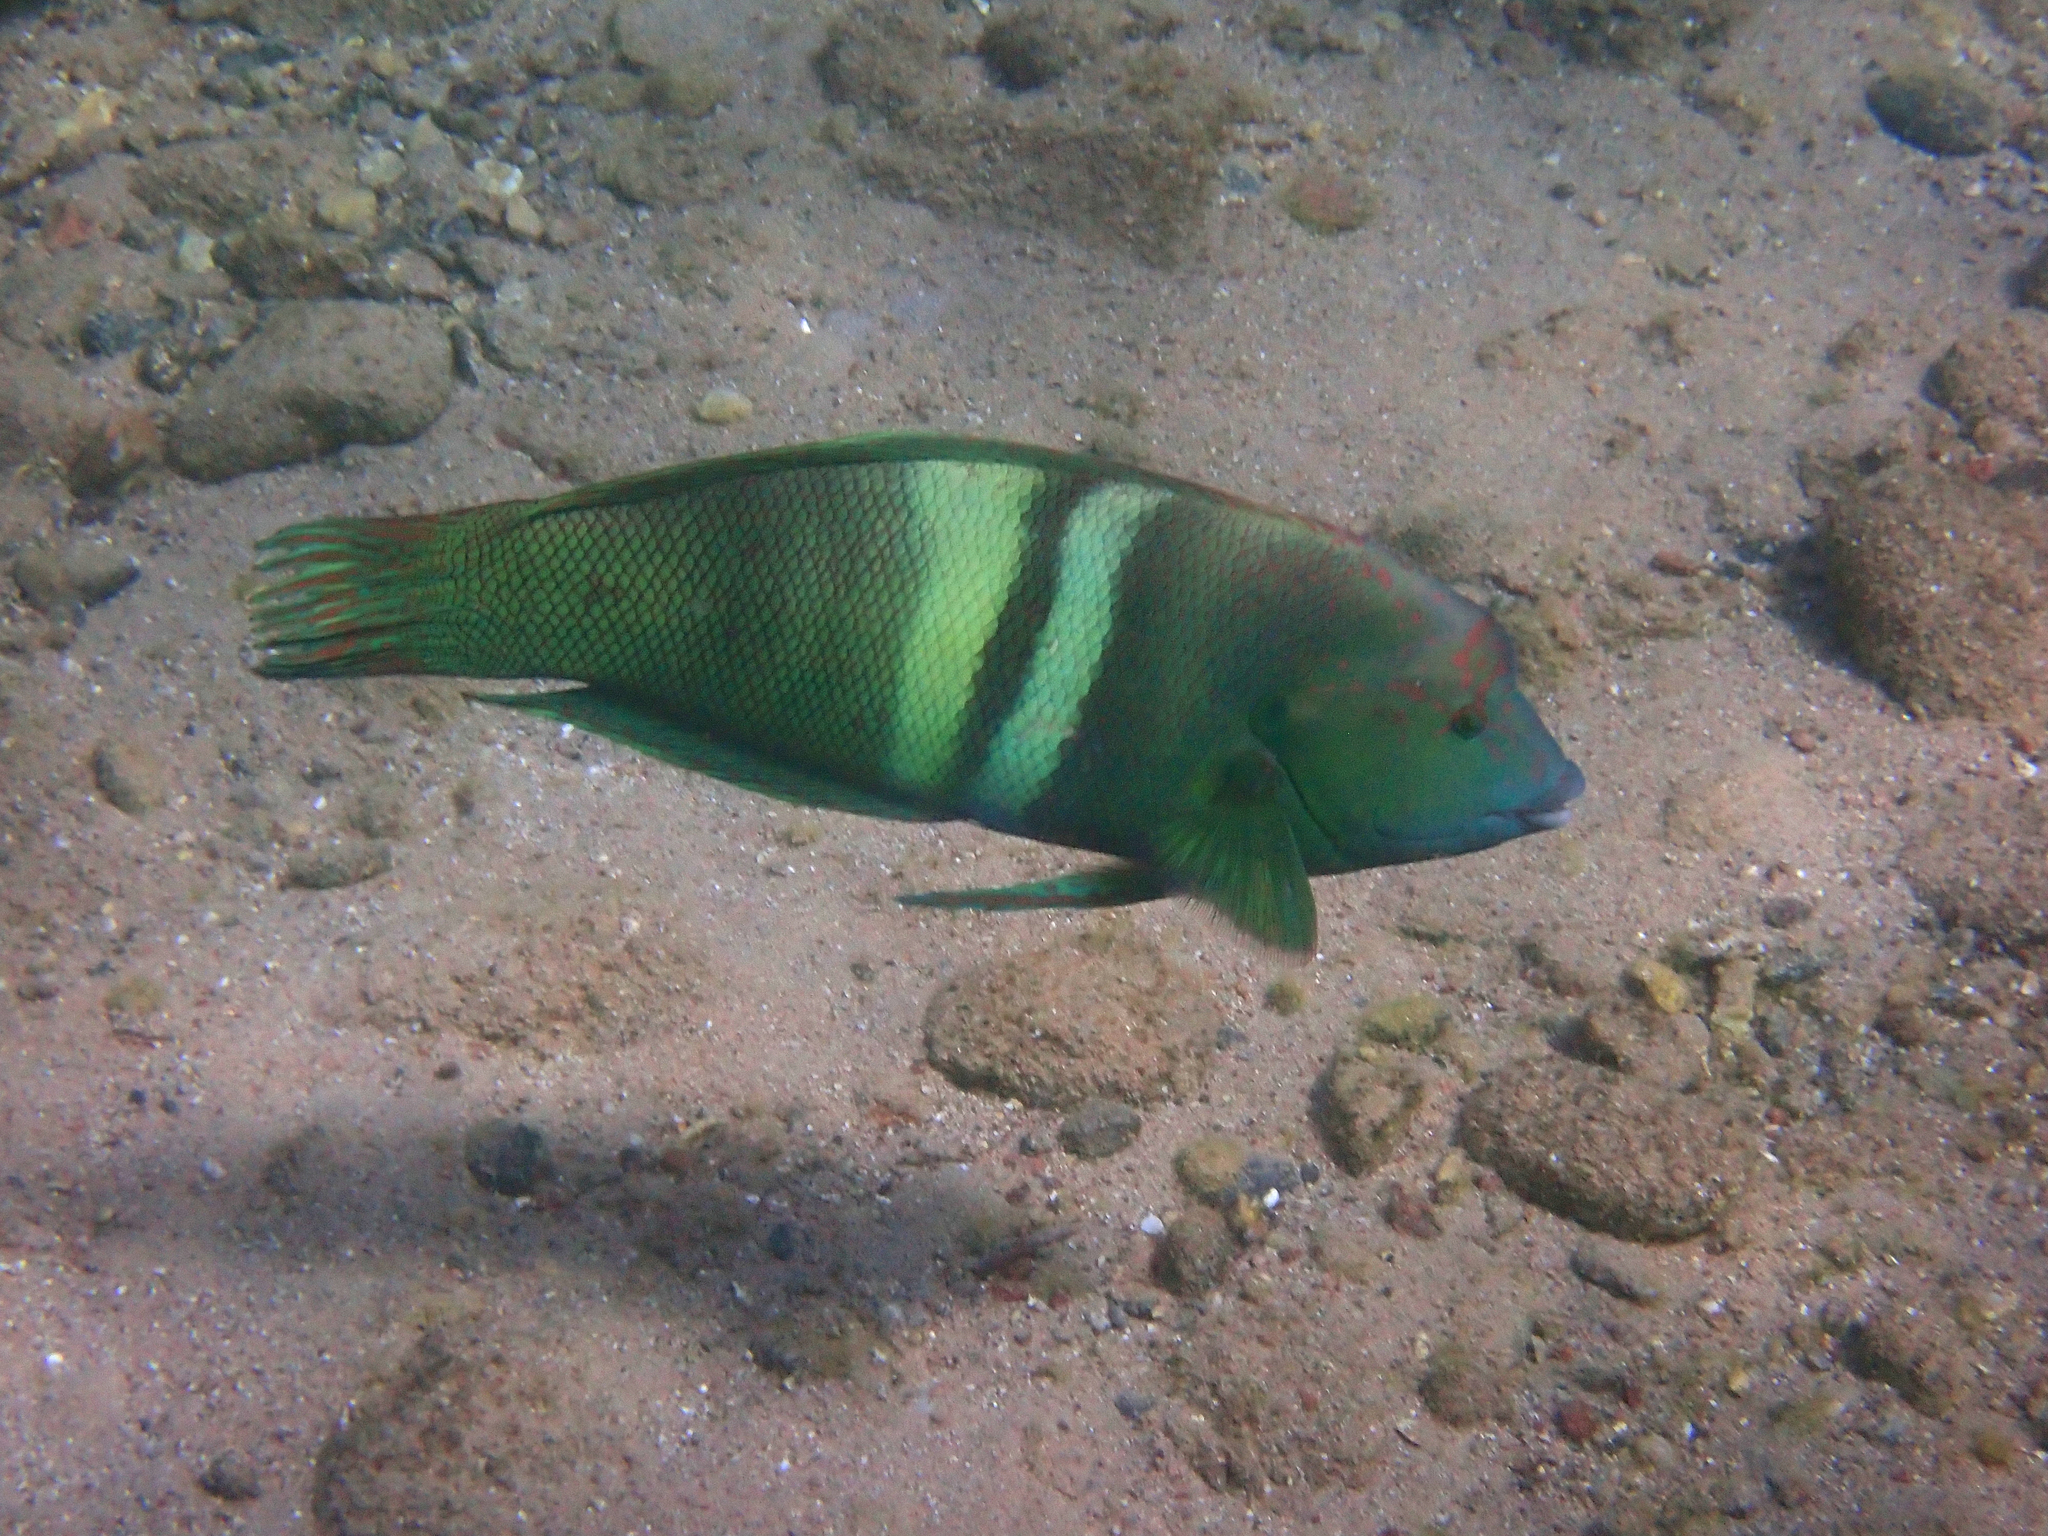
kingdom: Animalia
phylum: Chordata
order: Perciformes
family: Labridae
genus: Coris
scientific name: Coris aygula
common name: Clown coris
